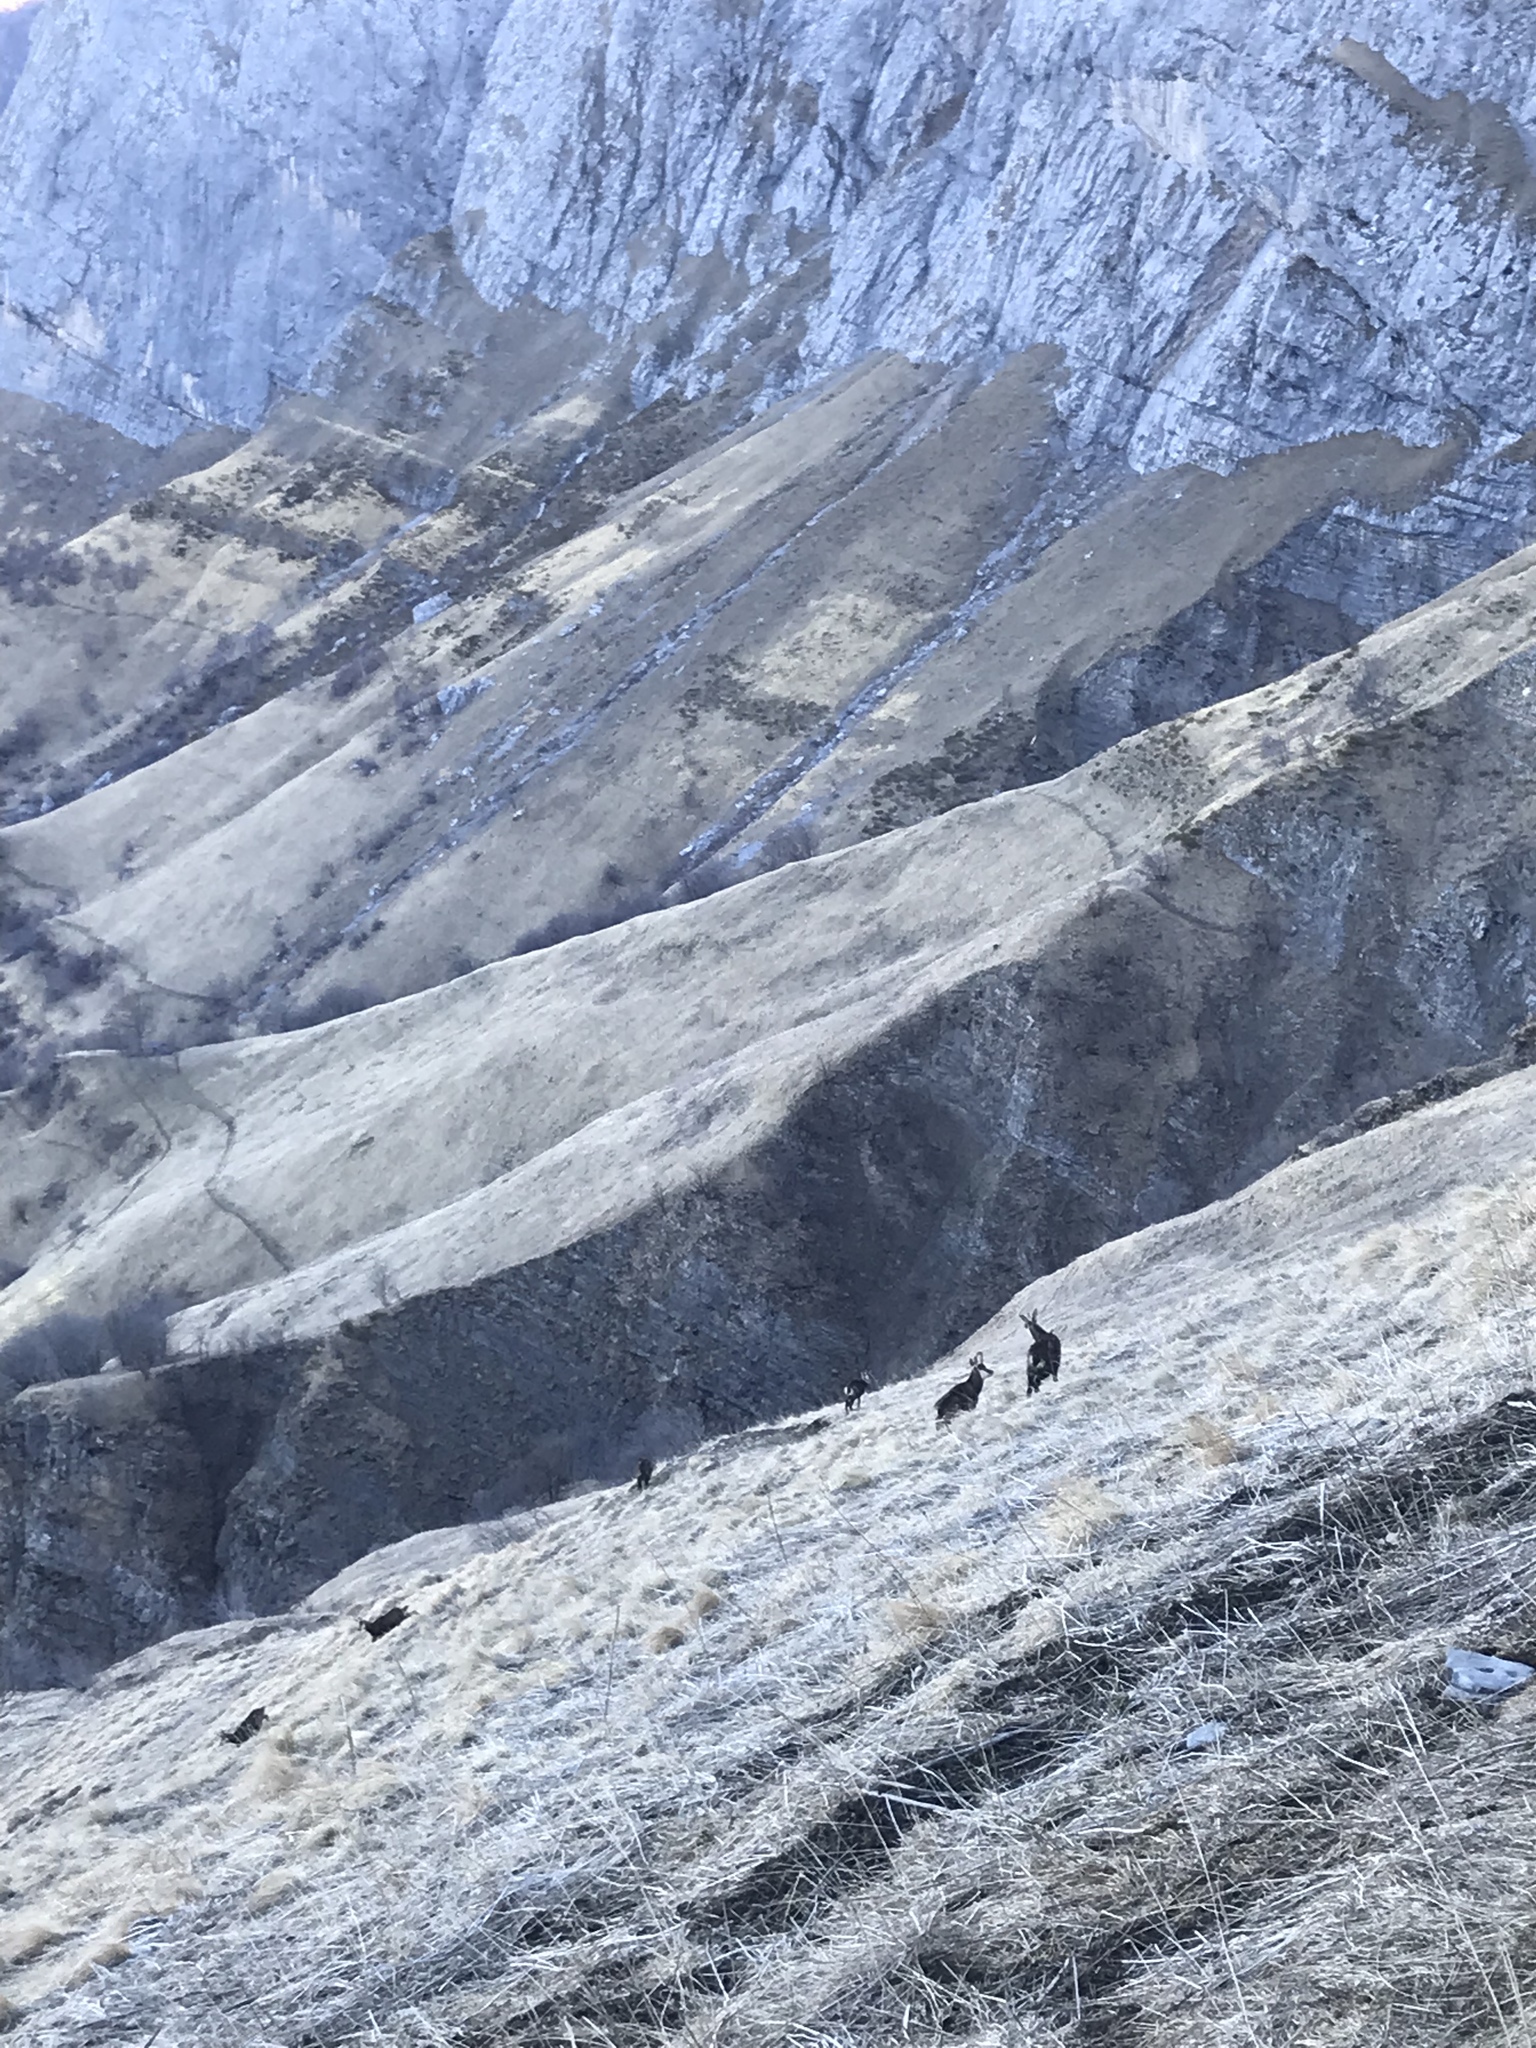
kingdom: Animalia
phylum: Chordata
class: Mammalia
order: Artiodactyla
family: Bovidae
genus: Rupicapra
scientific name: Rupicapra rupicapra
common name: Chamois
